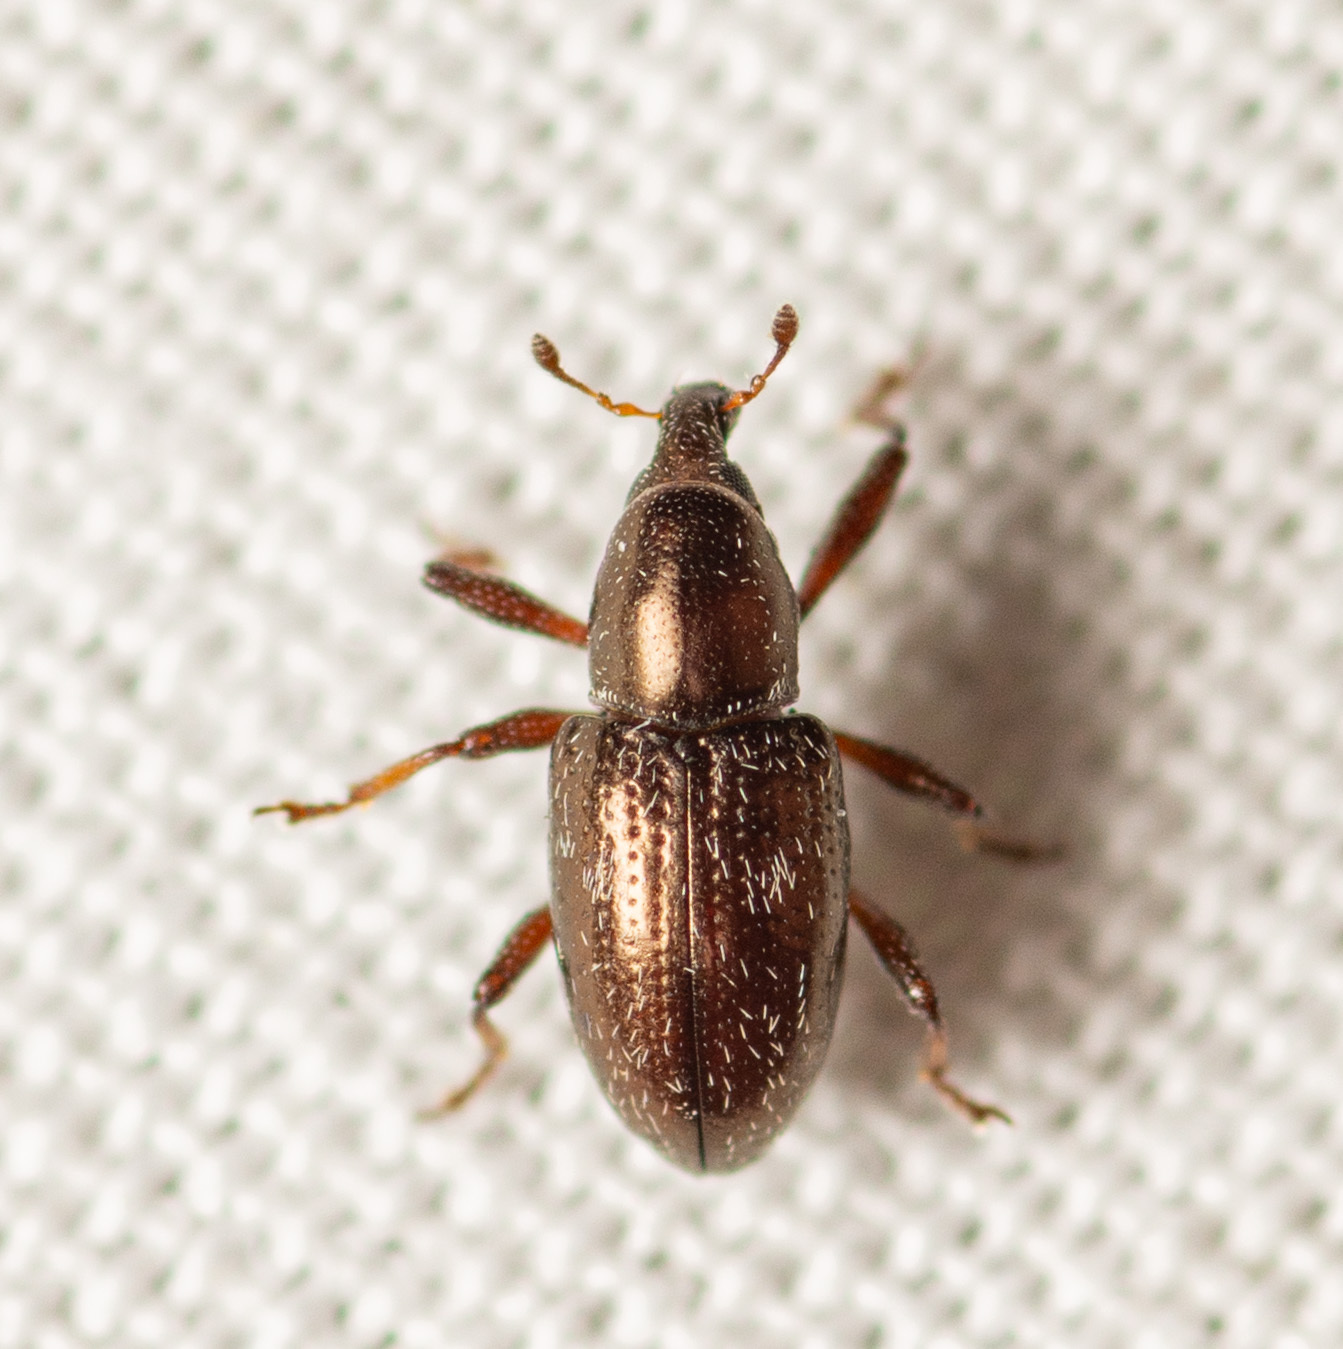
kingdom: Animalia
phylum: Arthropoda
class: Insecta
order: Coleoptera
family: Curculionidae
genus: Tyloderma
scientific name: Tyloderma subpubescens
